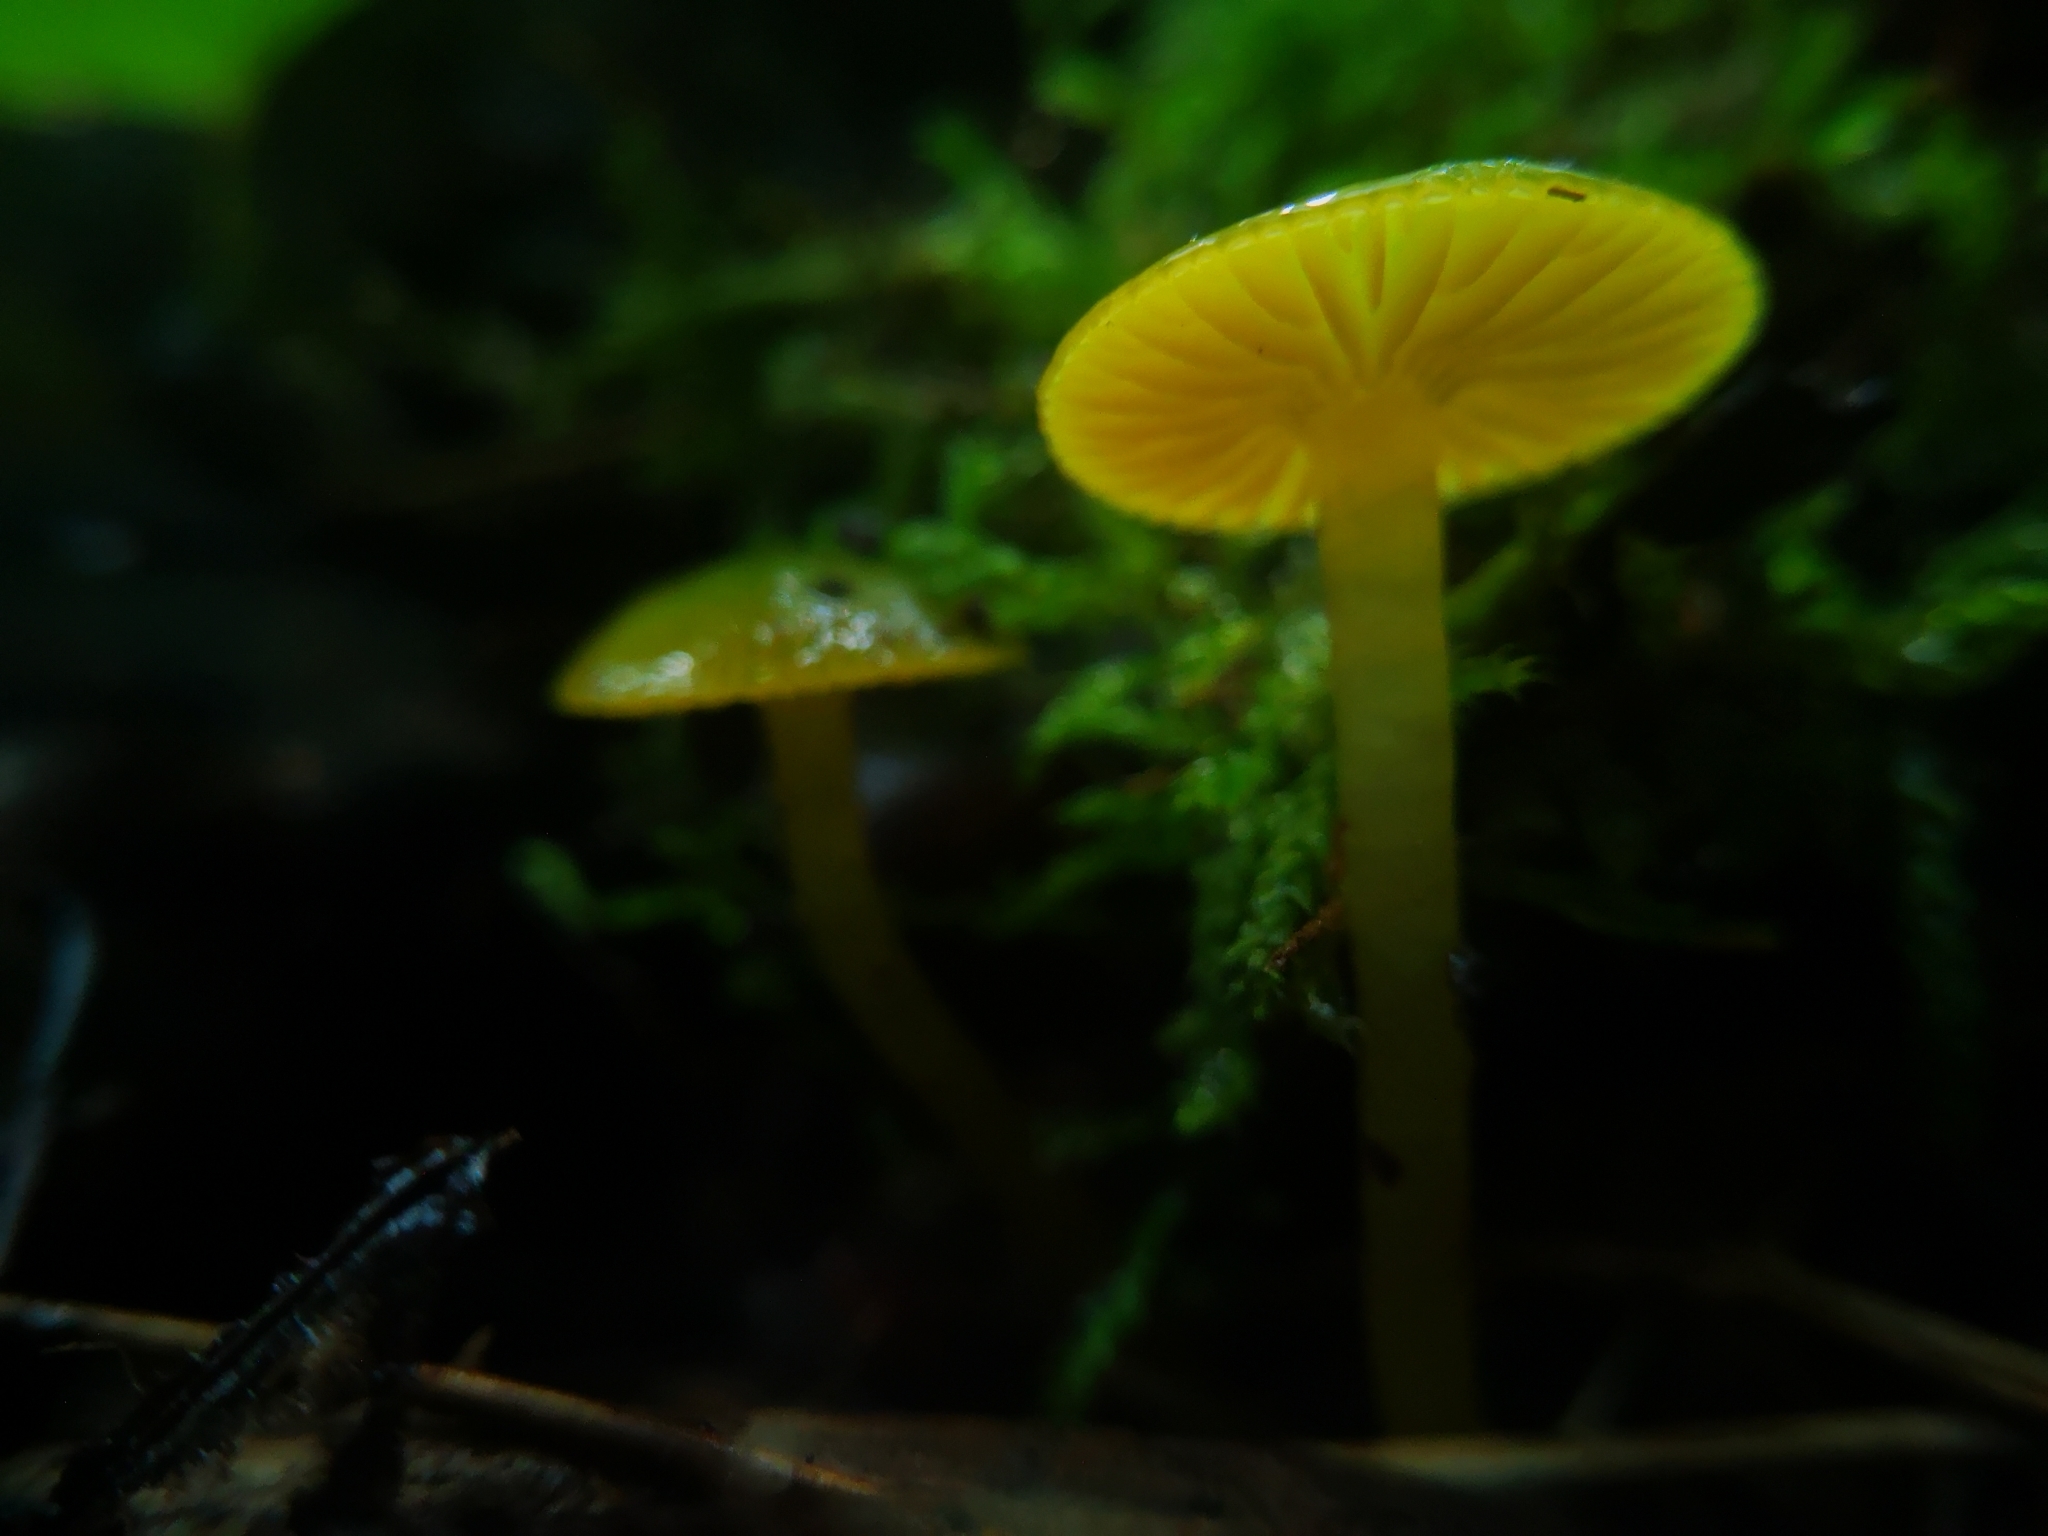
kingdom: Fungi
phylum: Basidiomycota
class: Agaricomycetes
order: Agaricales
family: Hygrophoraceae
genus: Gliophorus
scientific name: Gliophorus psittacinus
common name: Parrot wax-cap
